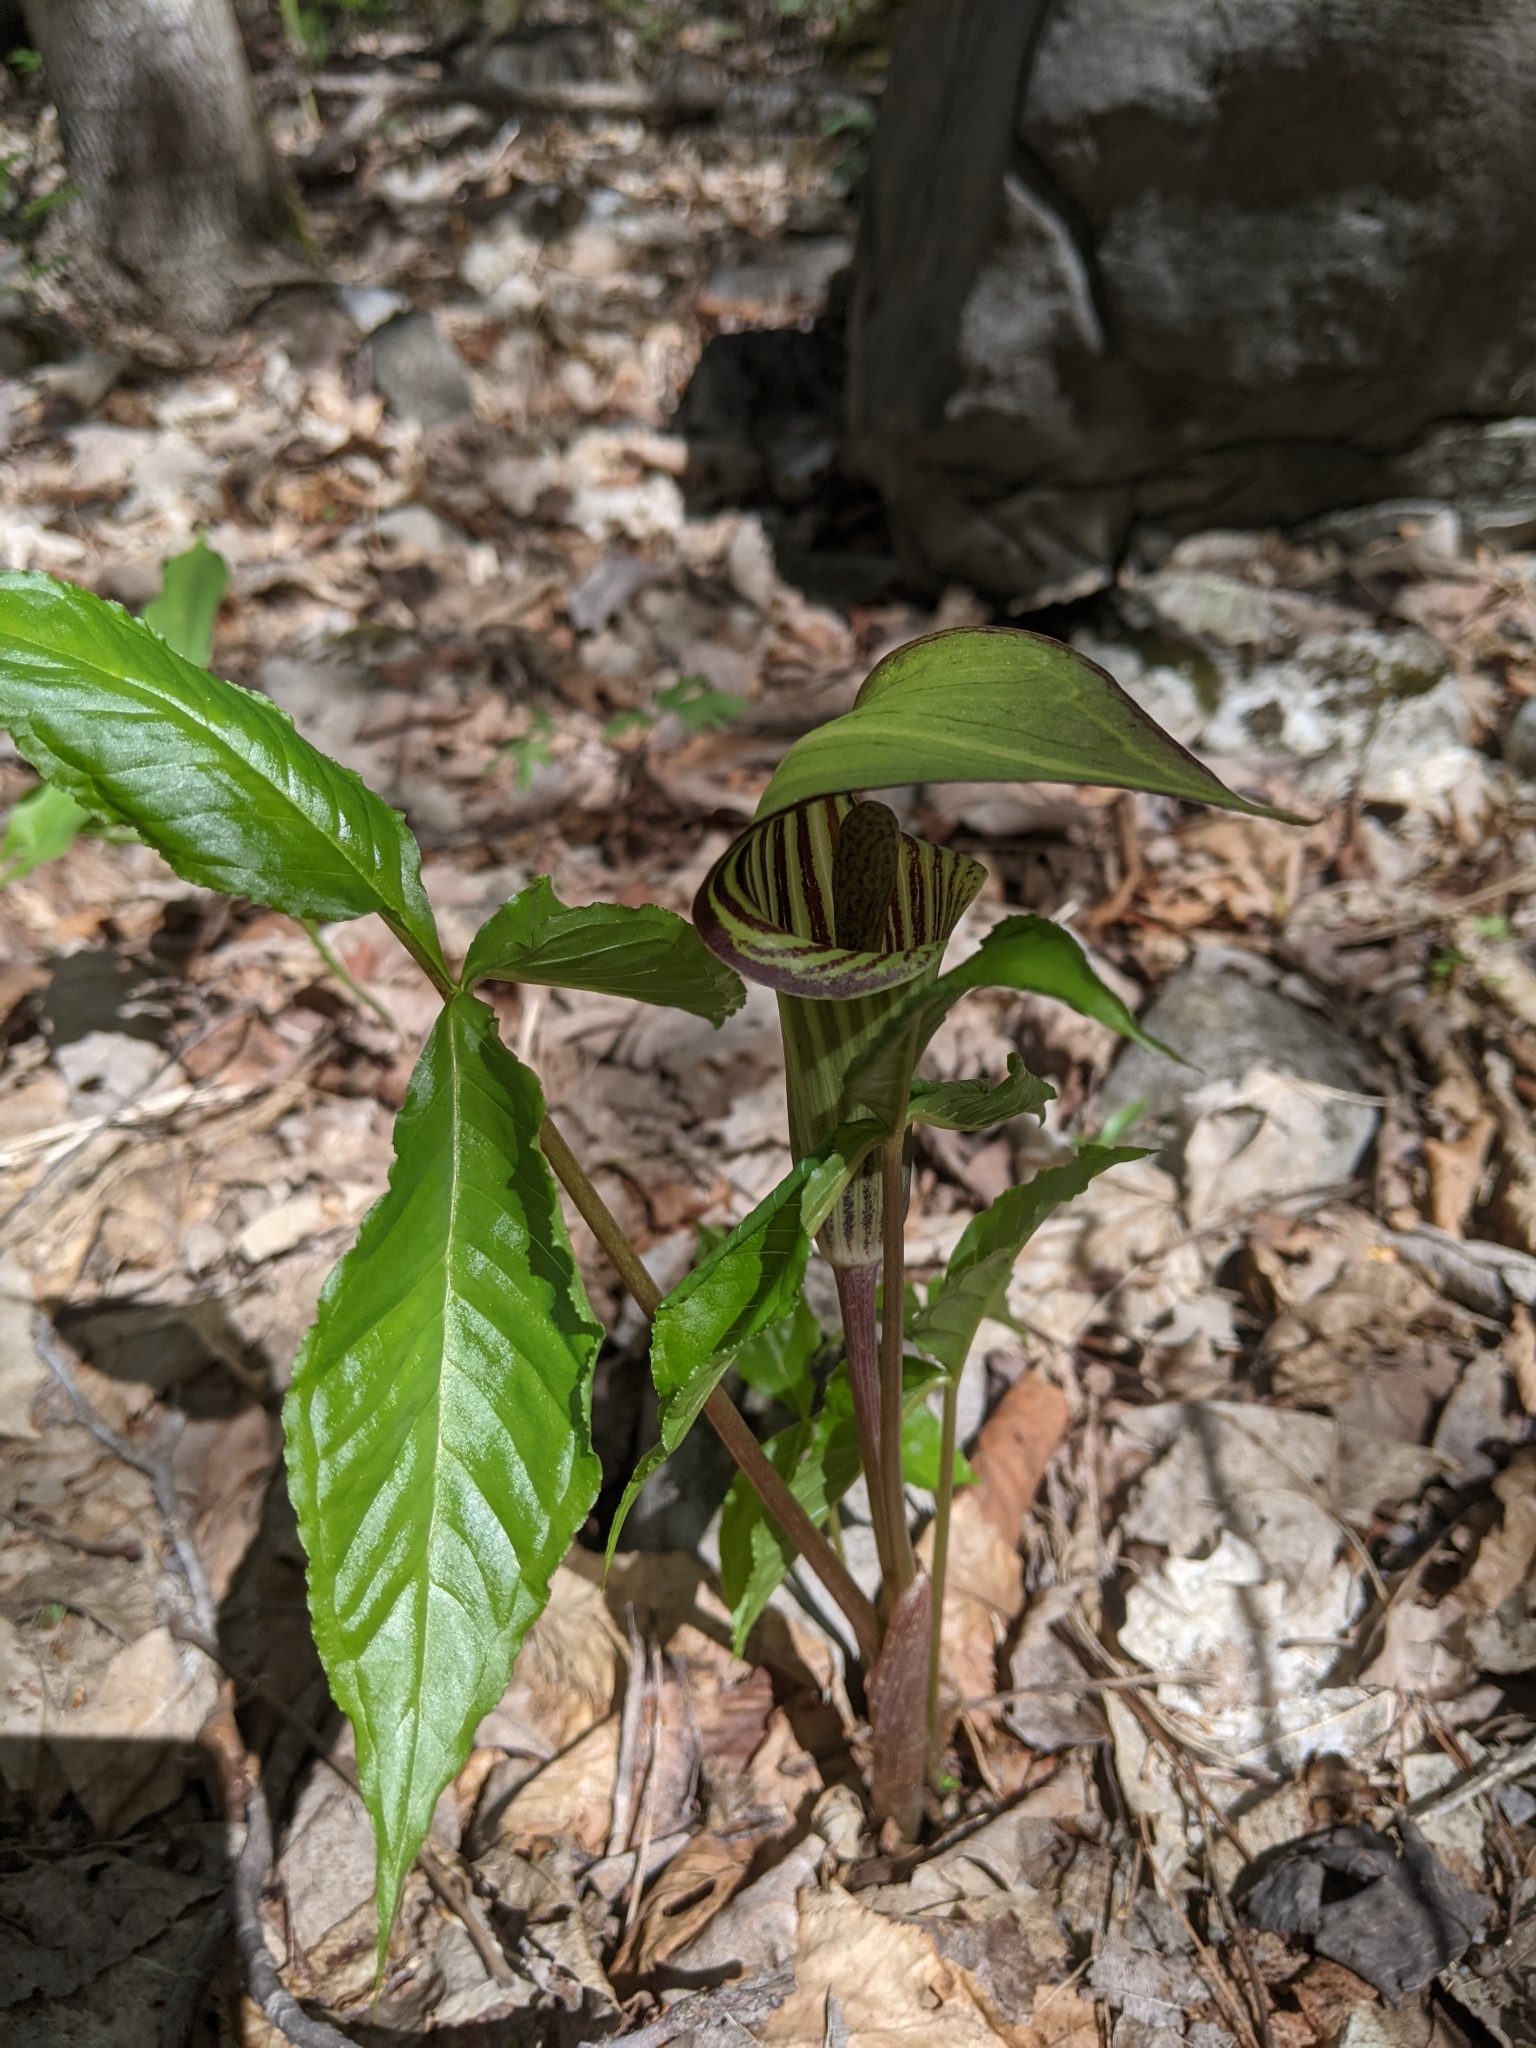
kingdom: Plantae
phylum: Tracheophyta
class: Liliopsida
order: Alismatales
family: Araceae
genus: Arisaema
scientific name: Arisaema triphyllum
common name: Jack-in-the-pulpit
